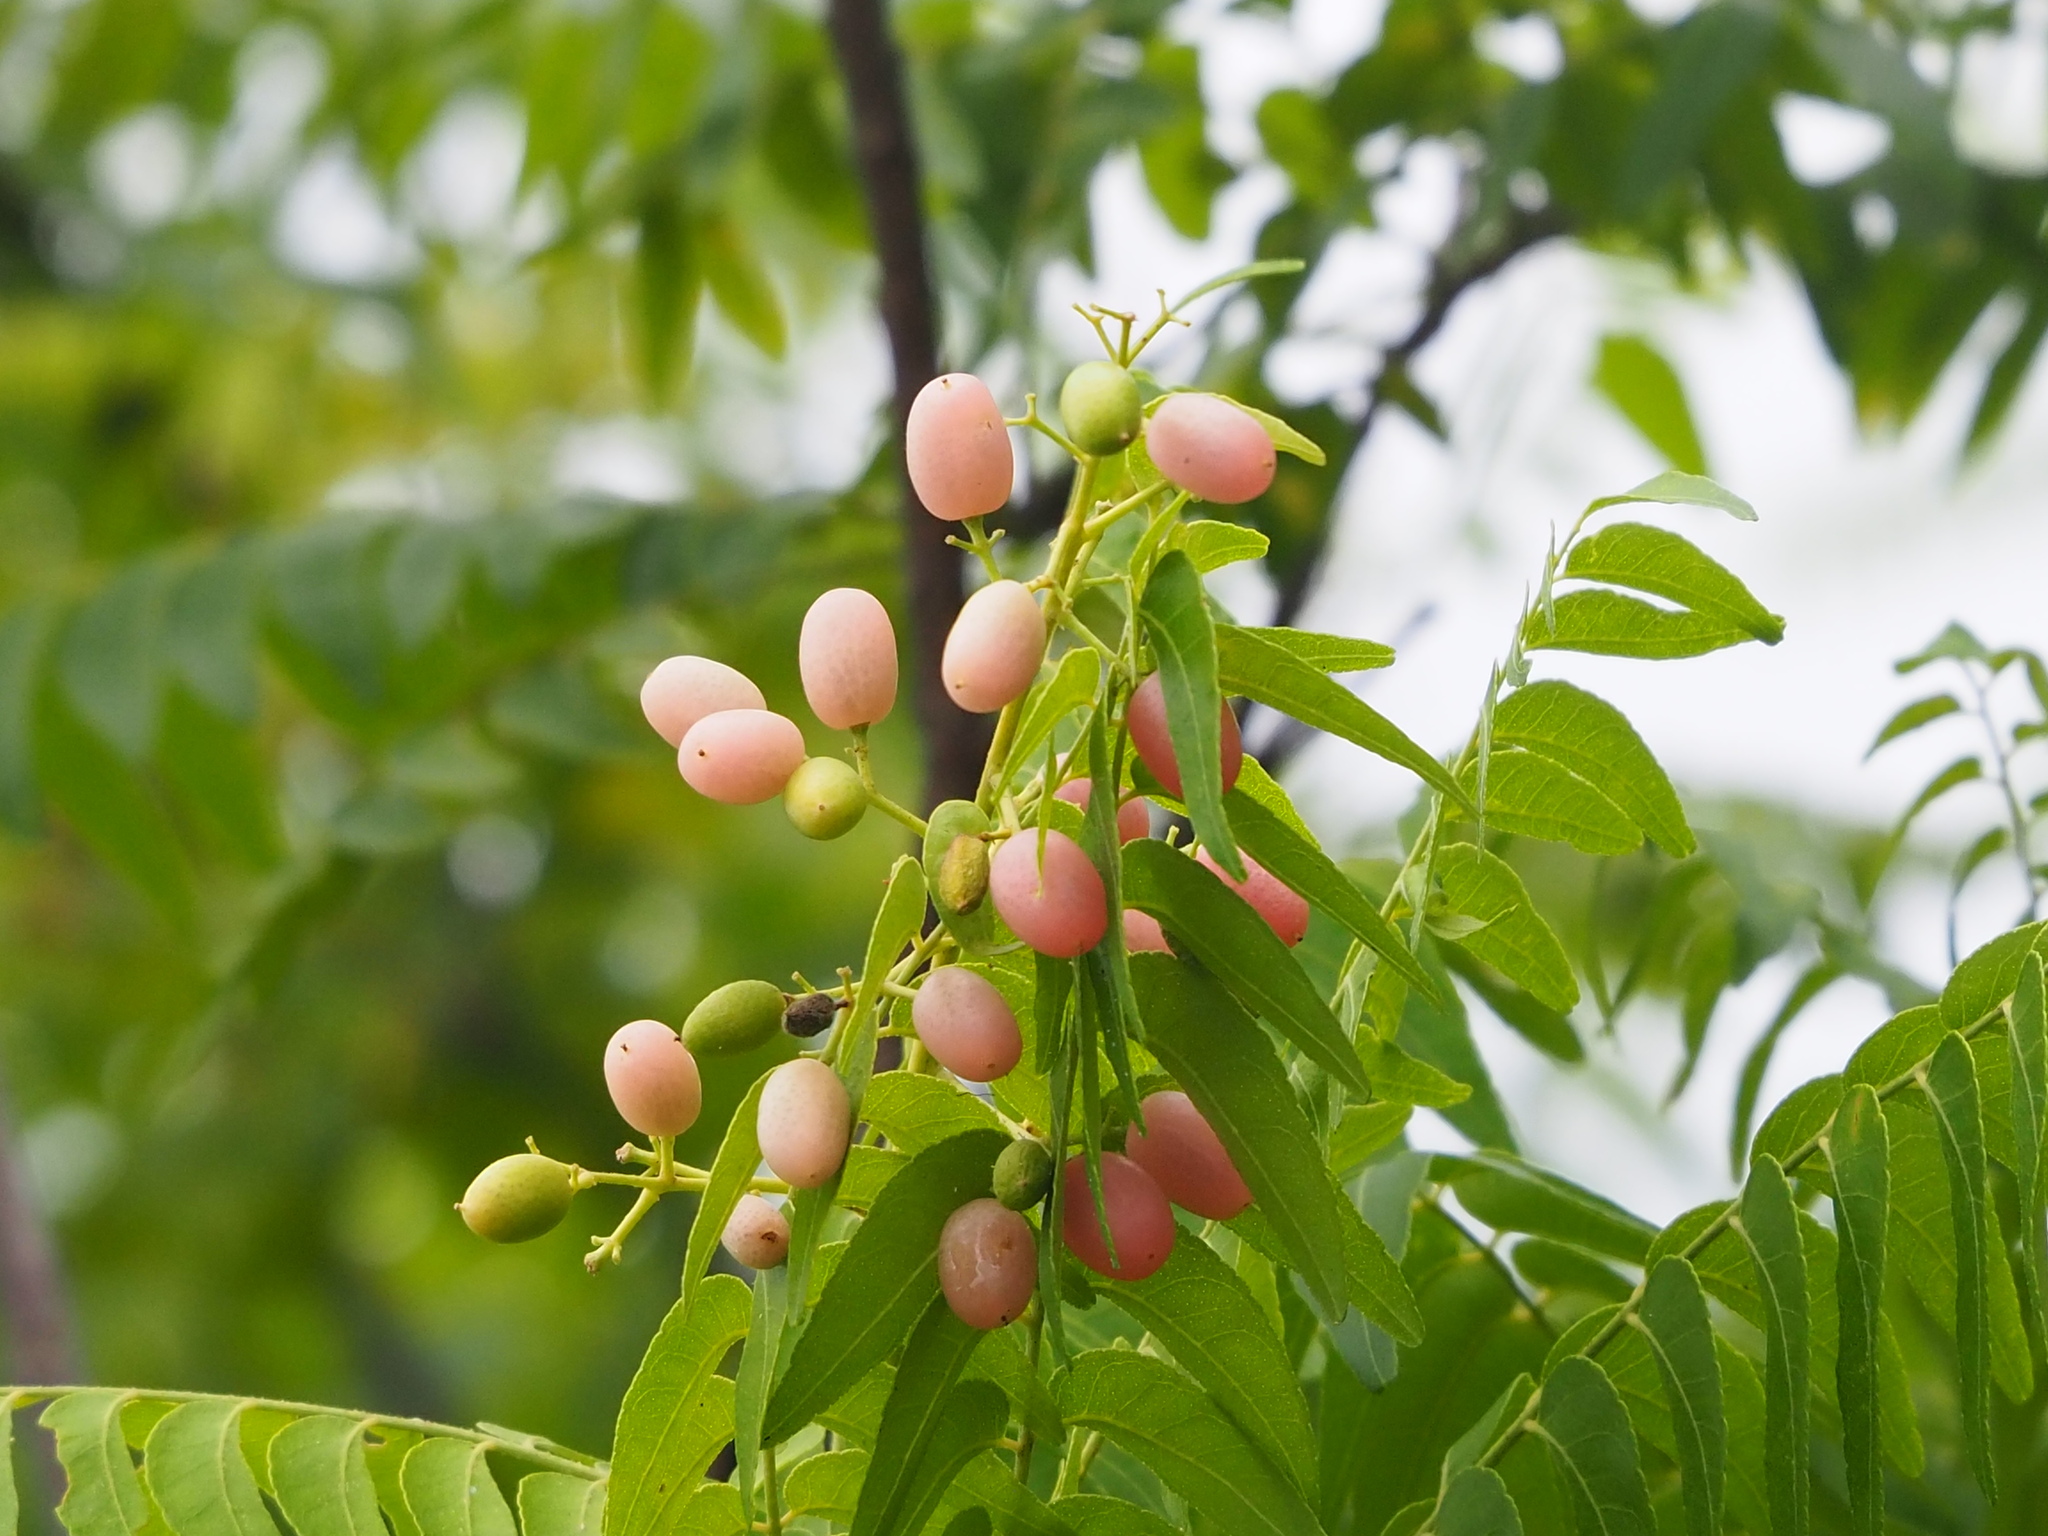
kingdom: Plantae
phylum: Tracheophyta
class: Magnoliopsida
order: Sapindales
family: Rutaceae
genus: Clausena
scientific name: Clausena excavata
